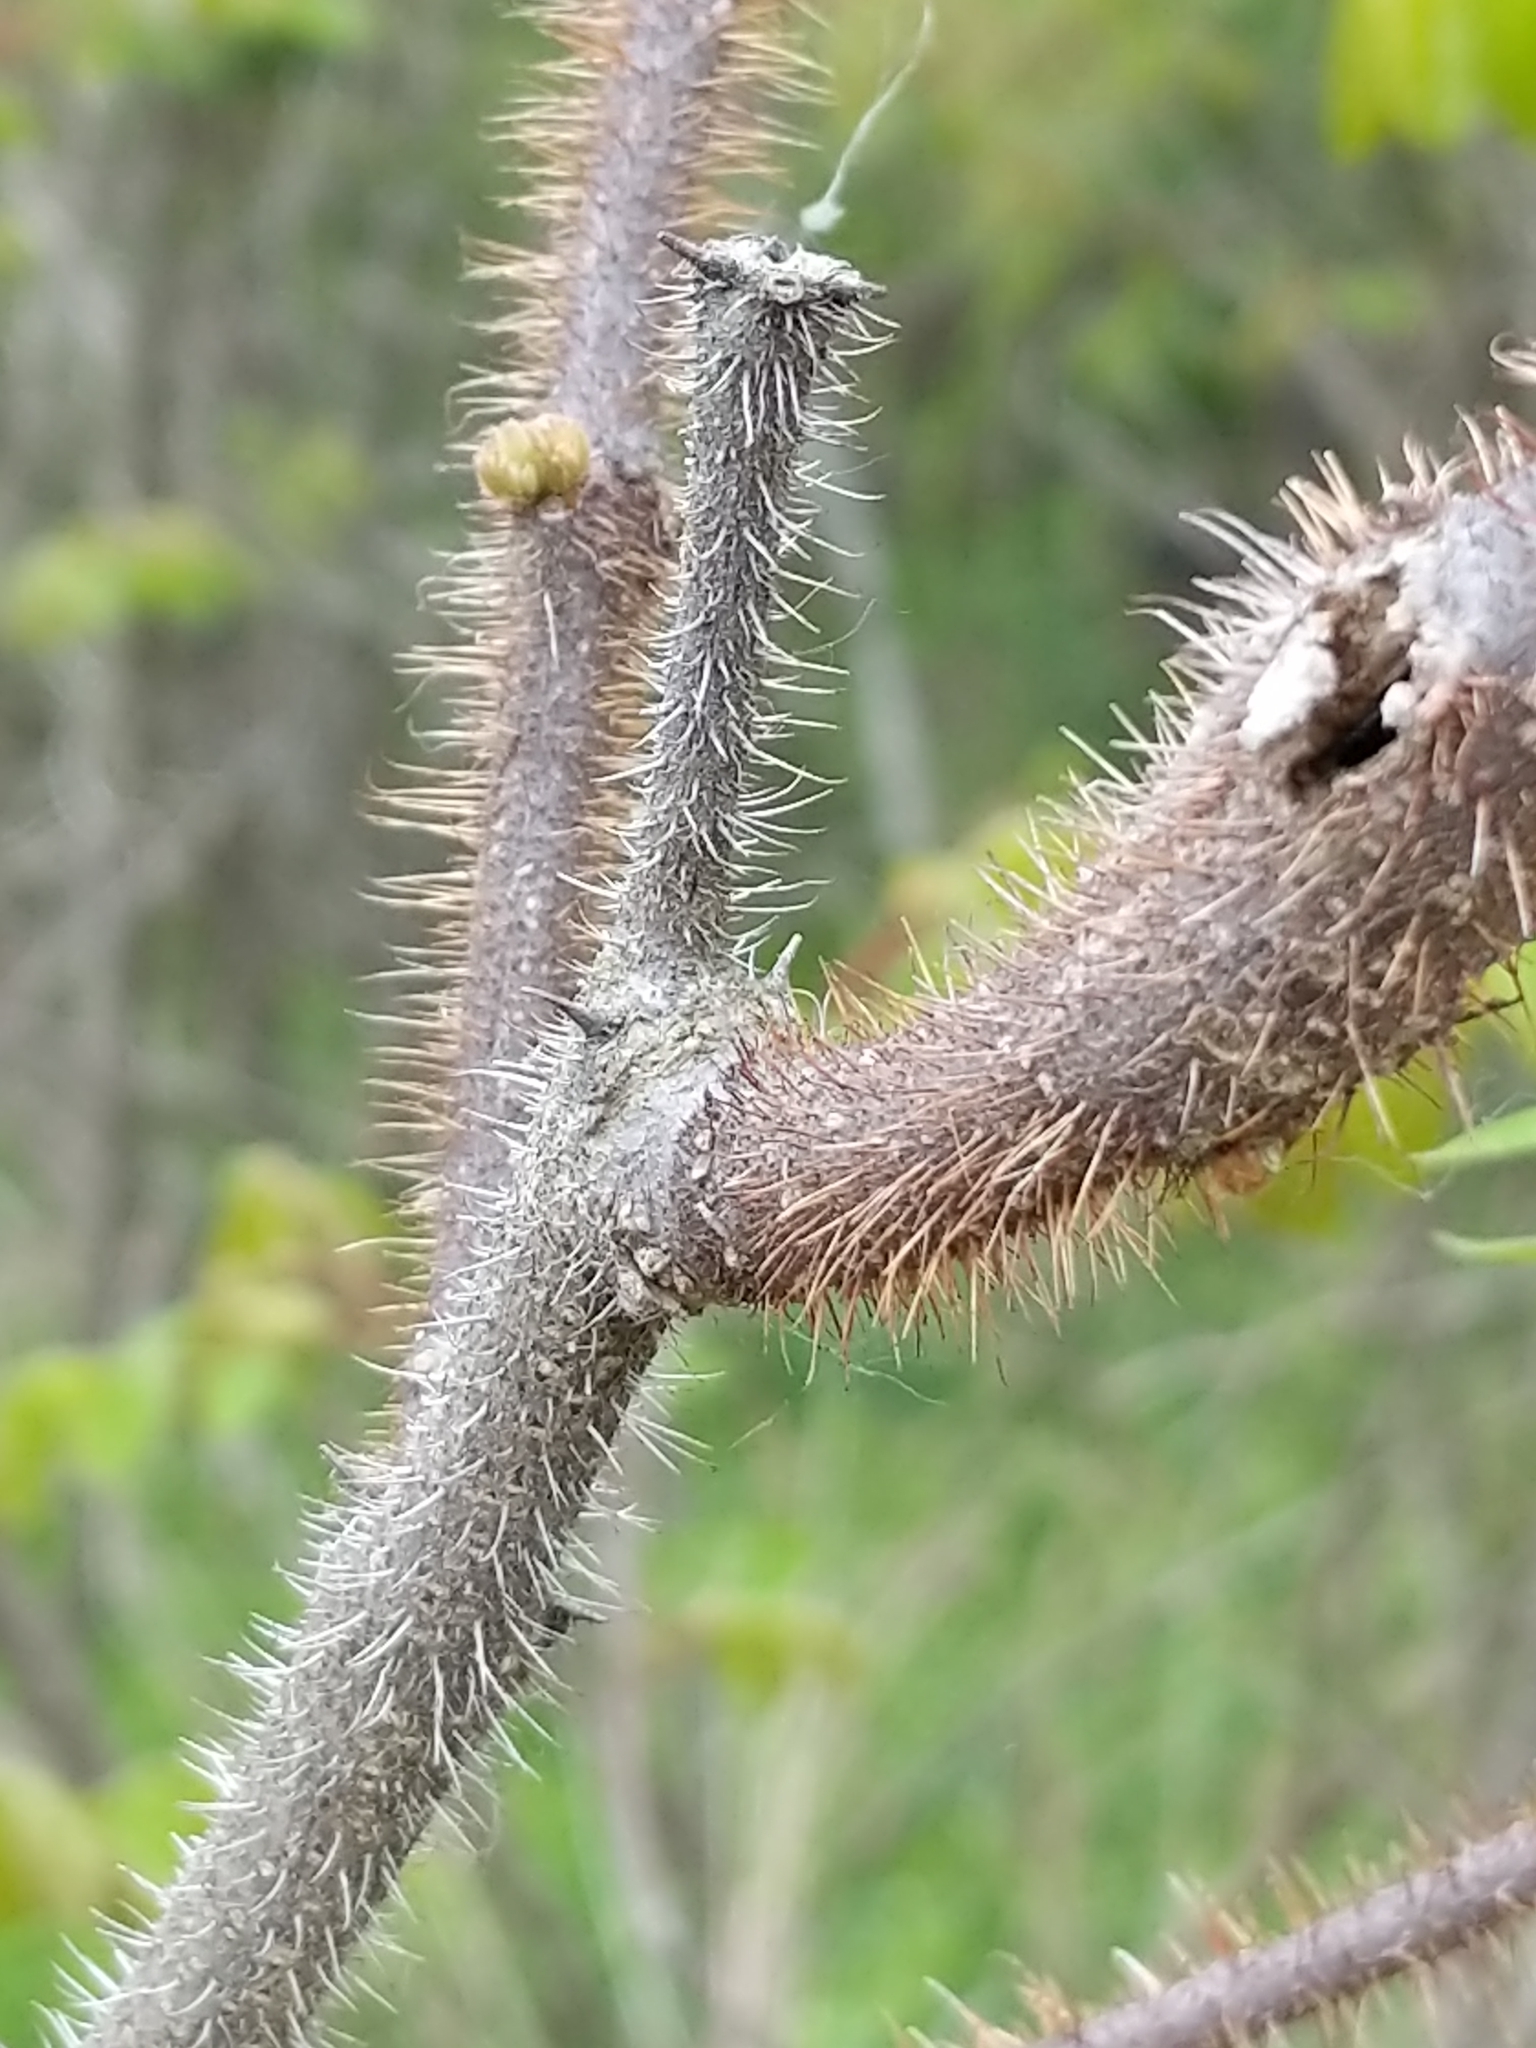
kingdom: Plantae
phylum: Tracheophyta
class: Magnoliopsida
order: Fabales
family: Fabaceae
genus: Robinia
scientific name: Robinia hispida
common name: Bristly locust
